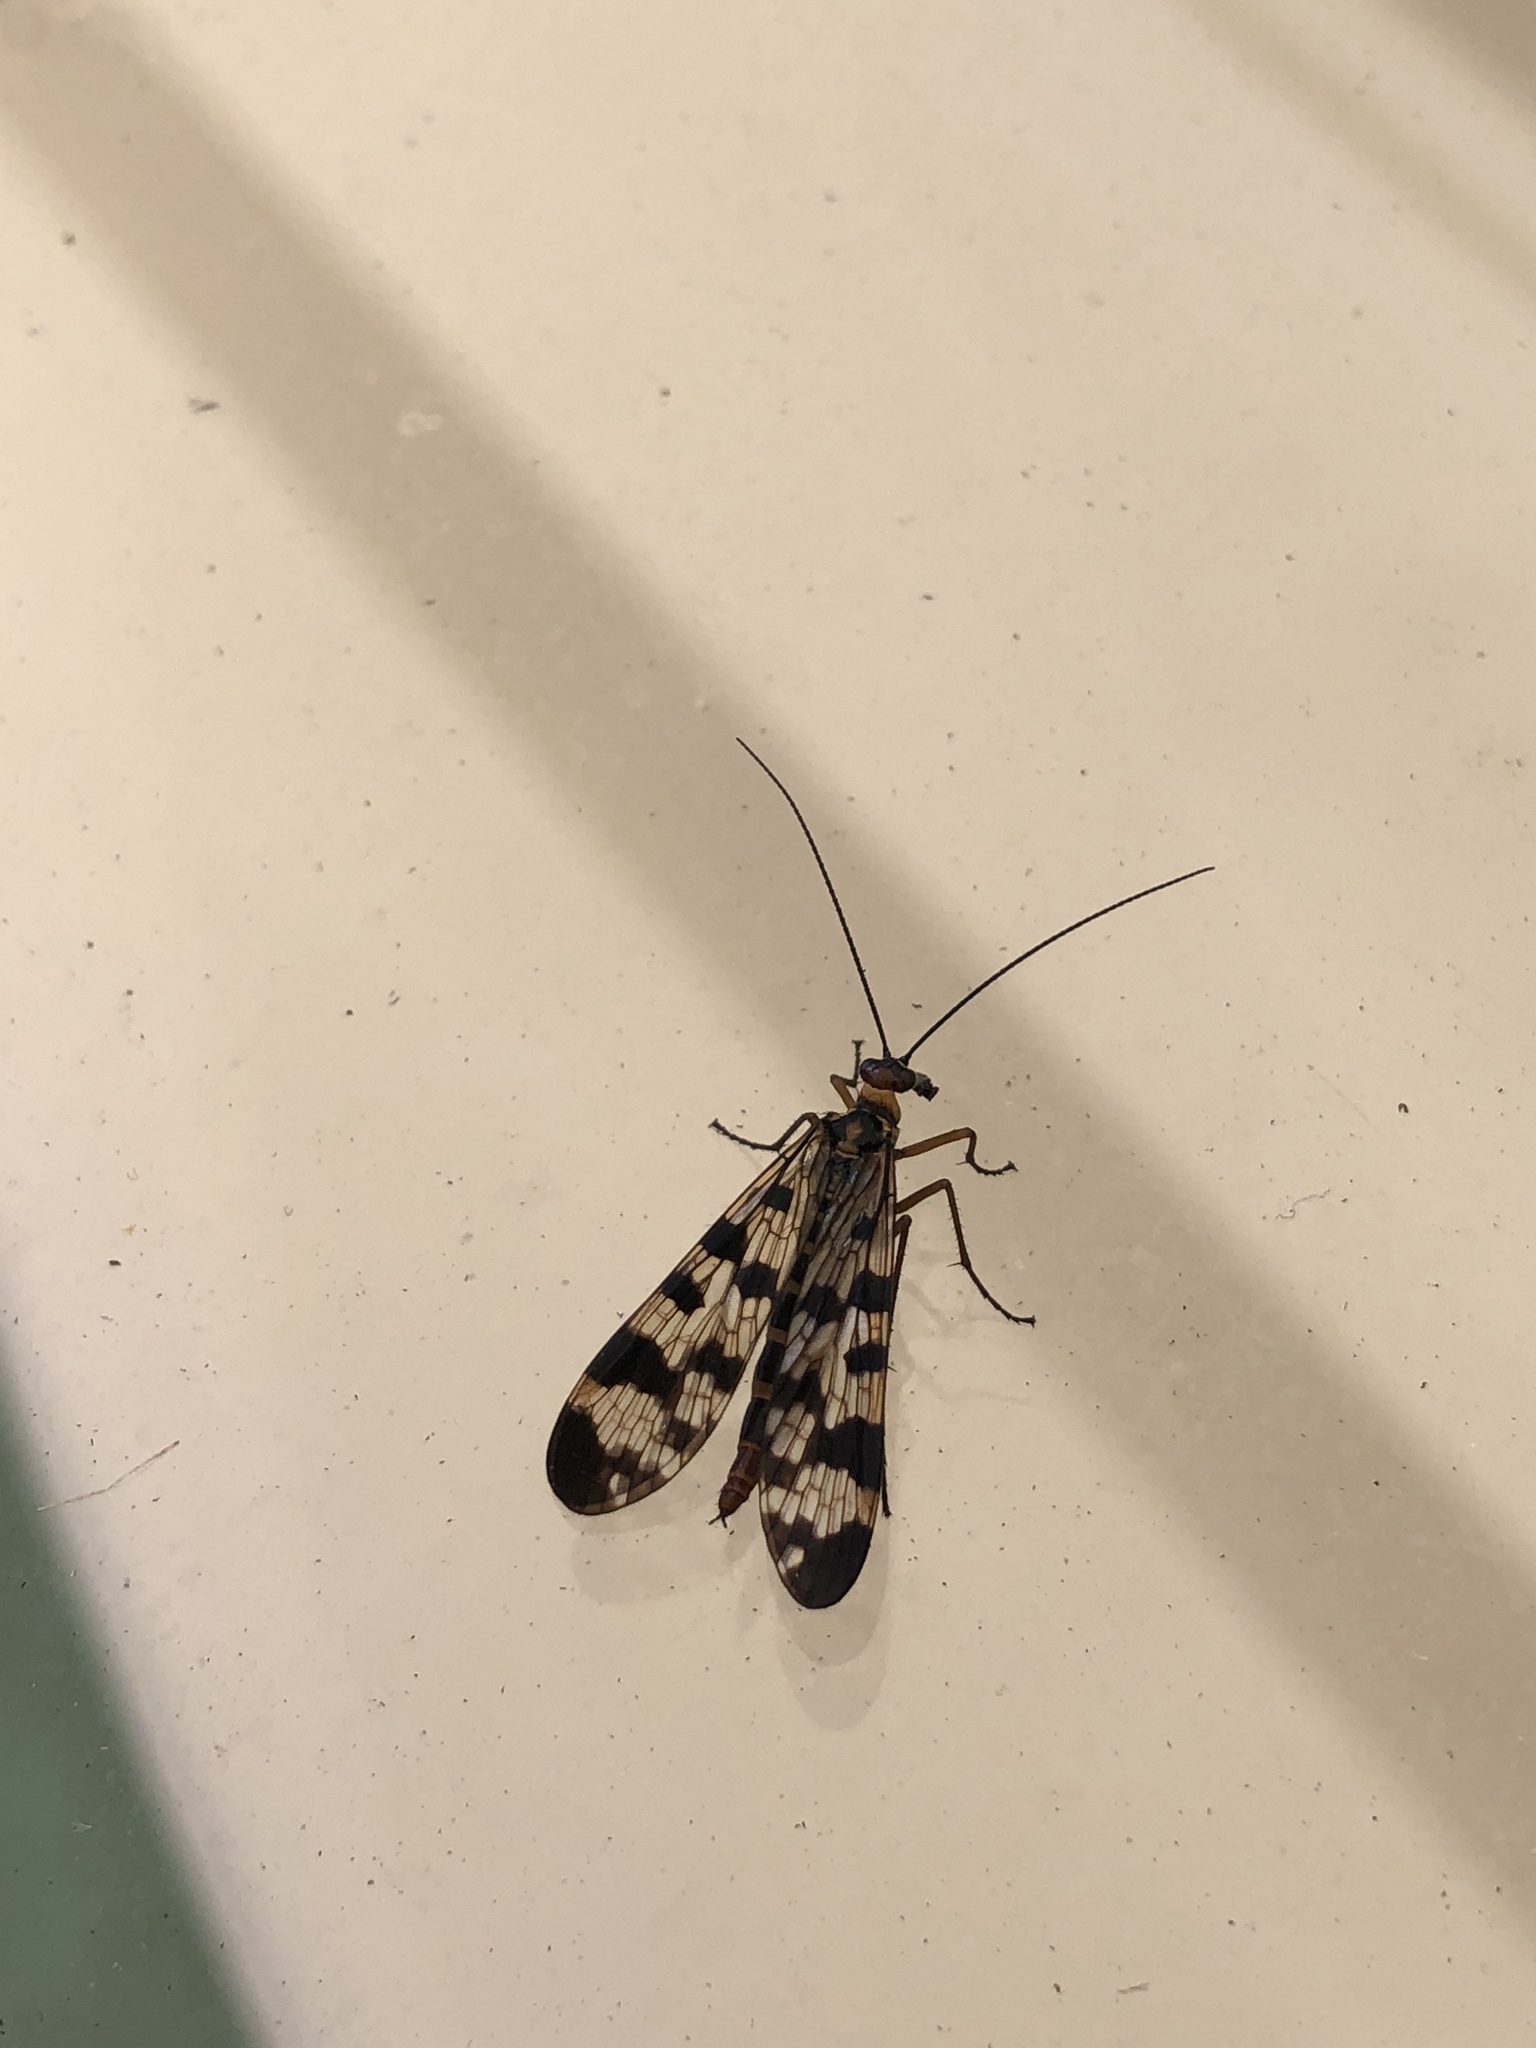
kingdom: Animalia
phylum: Arthropoda
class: Insecta
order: Mecoptera
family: Panorpidae
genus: Panorpa
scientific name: Panorpa meridionalis
